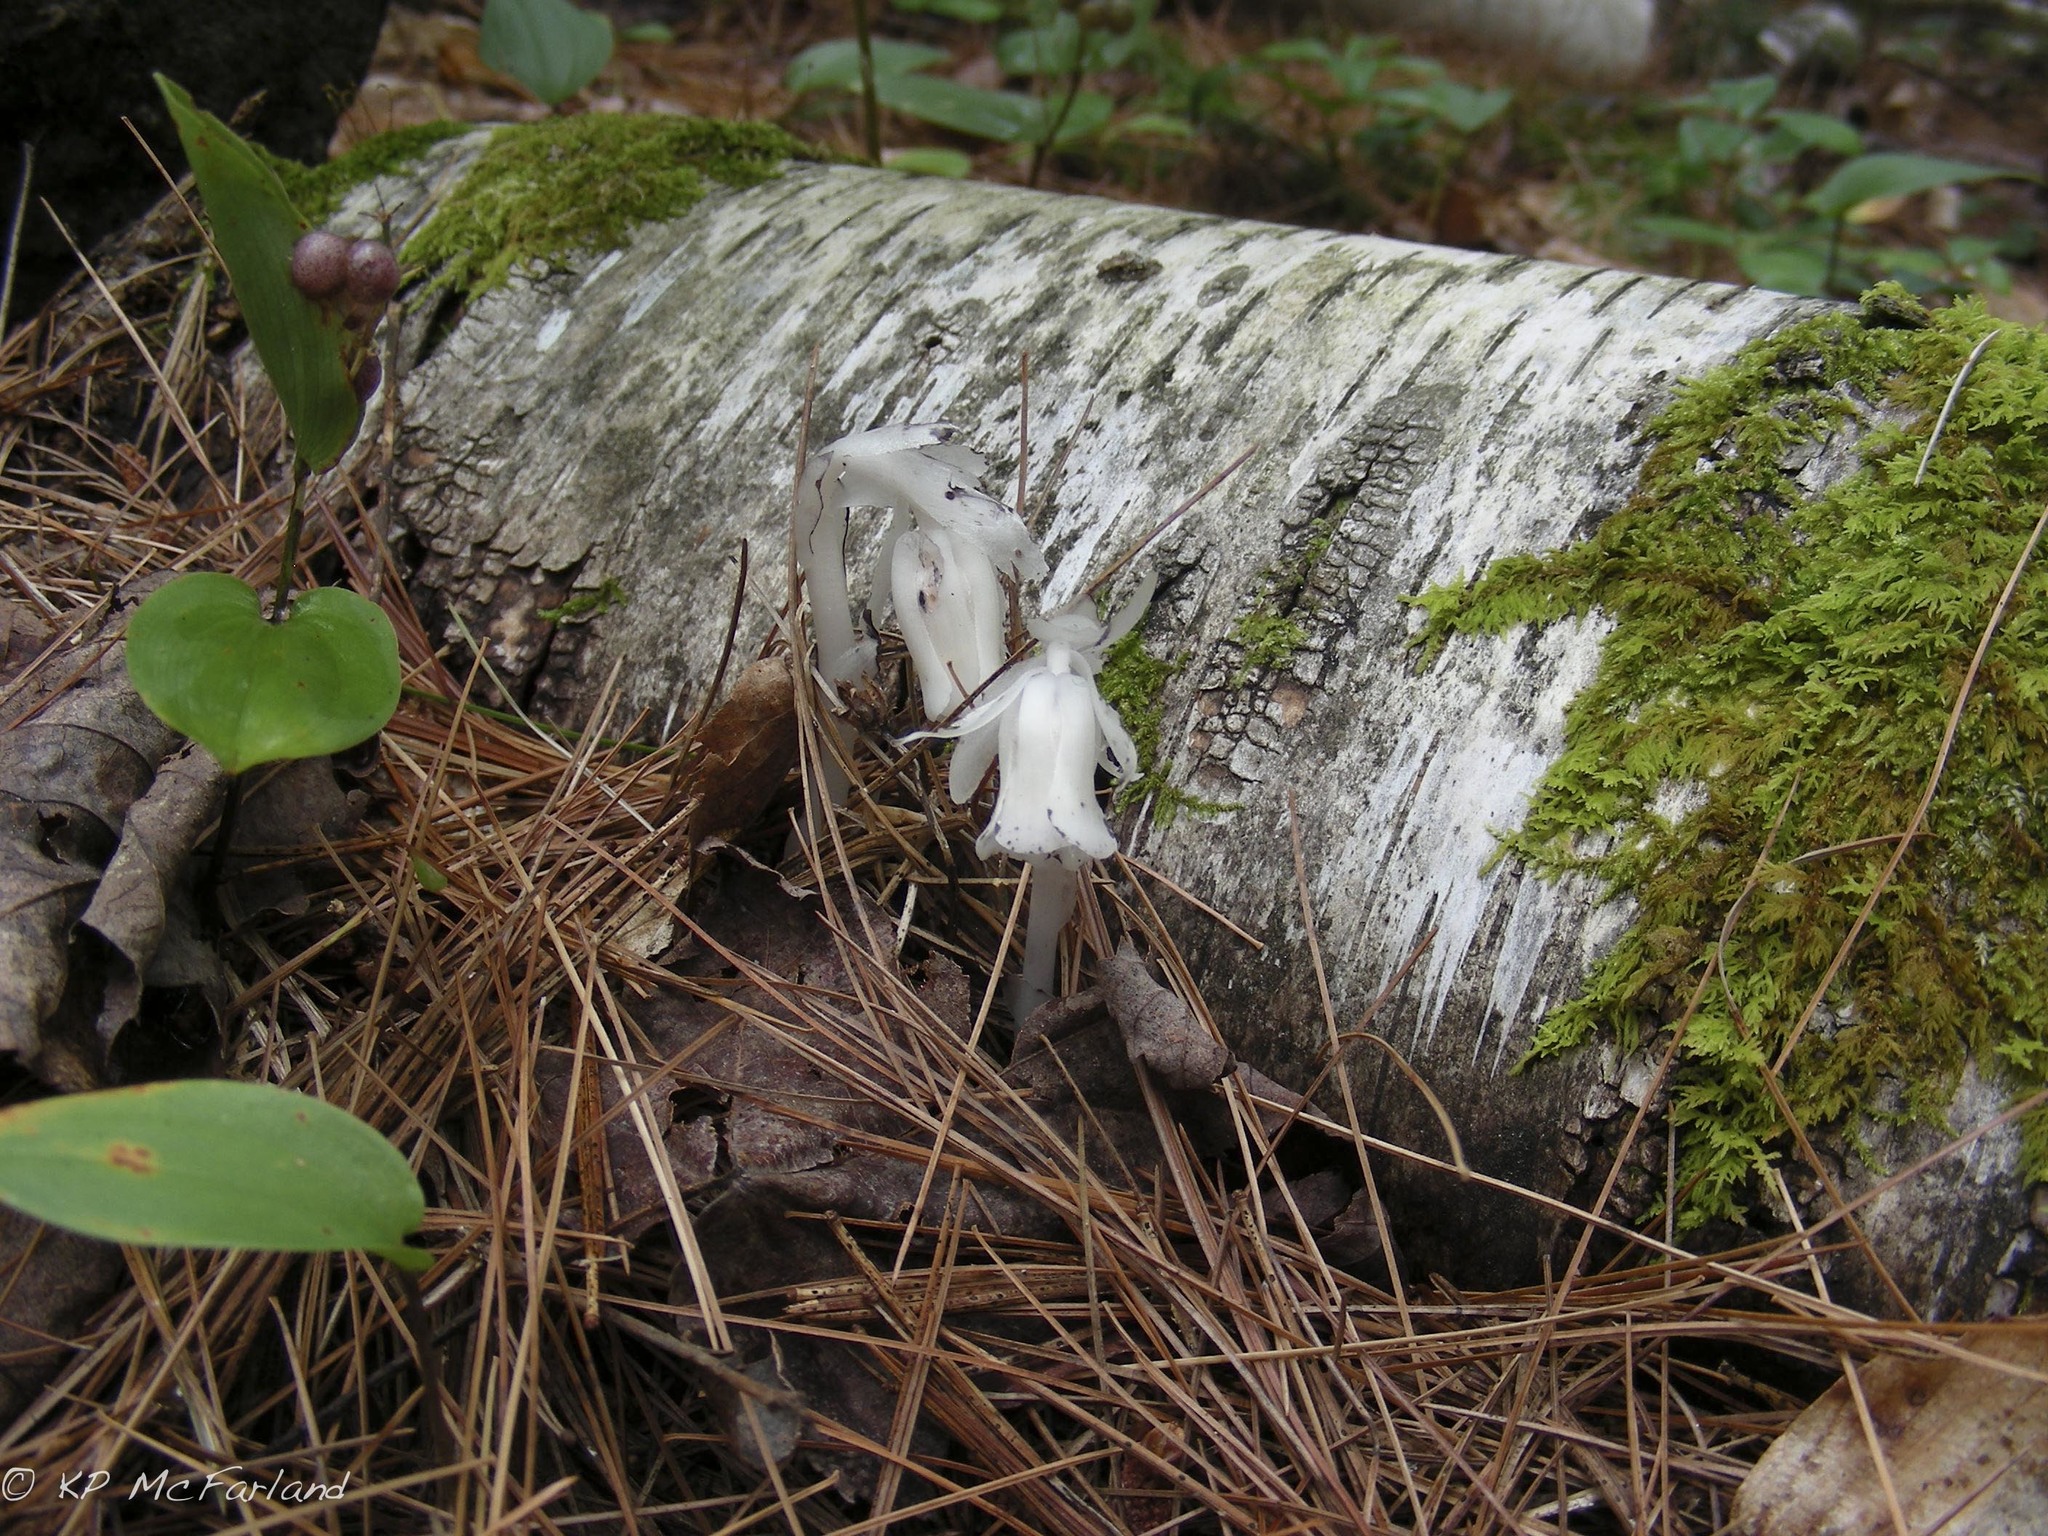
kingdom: Plantae
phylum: Tracheophyta
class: Magnoliopsida
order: Ericales
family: Ericaceae
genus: Monotropa
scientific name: Monotropa uniflora
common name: Convulsion root
